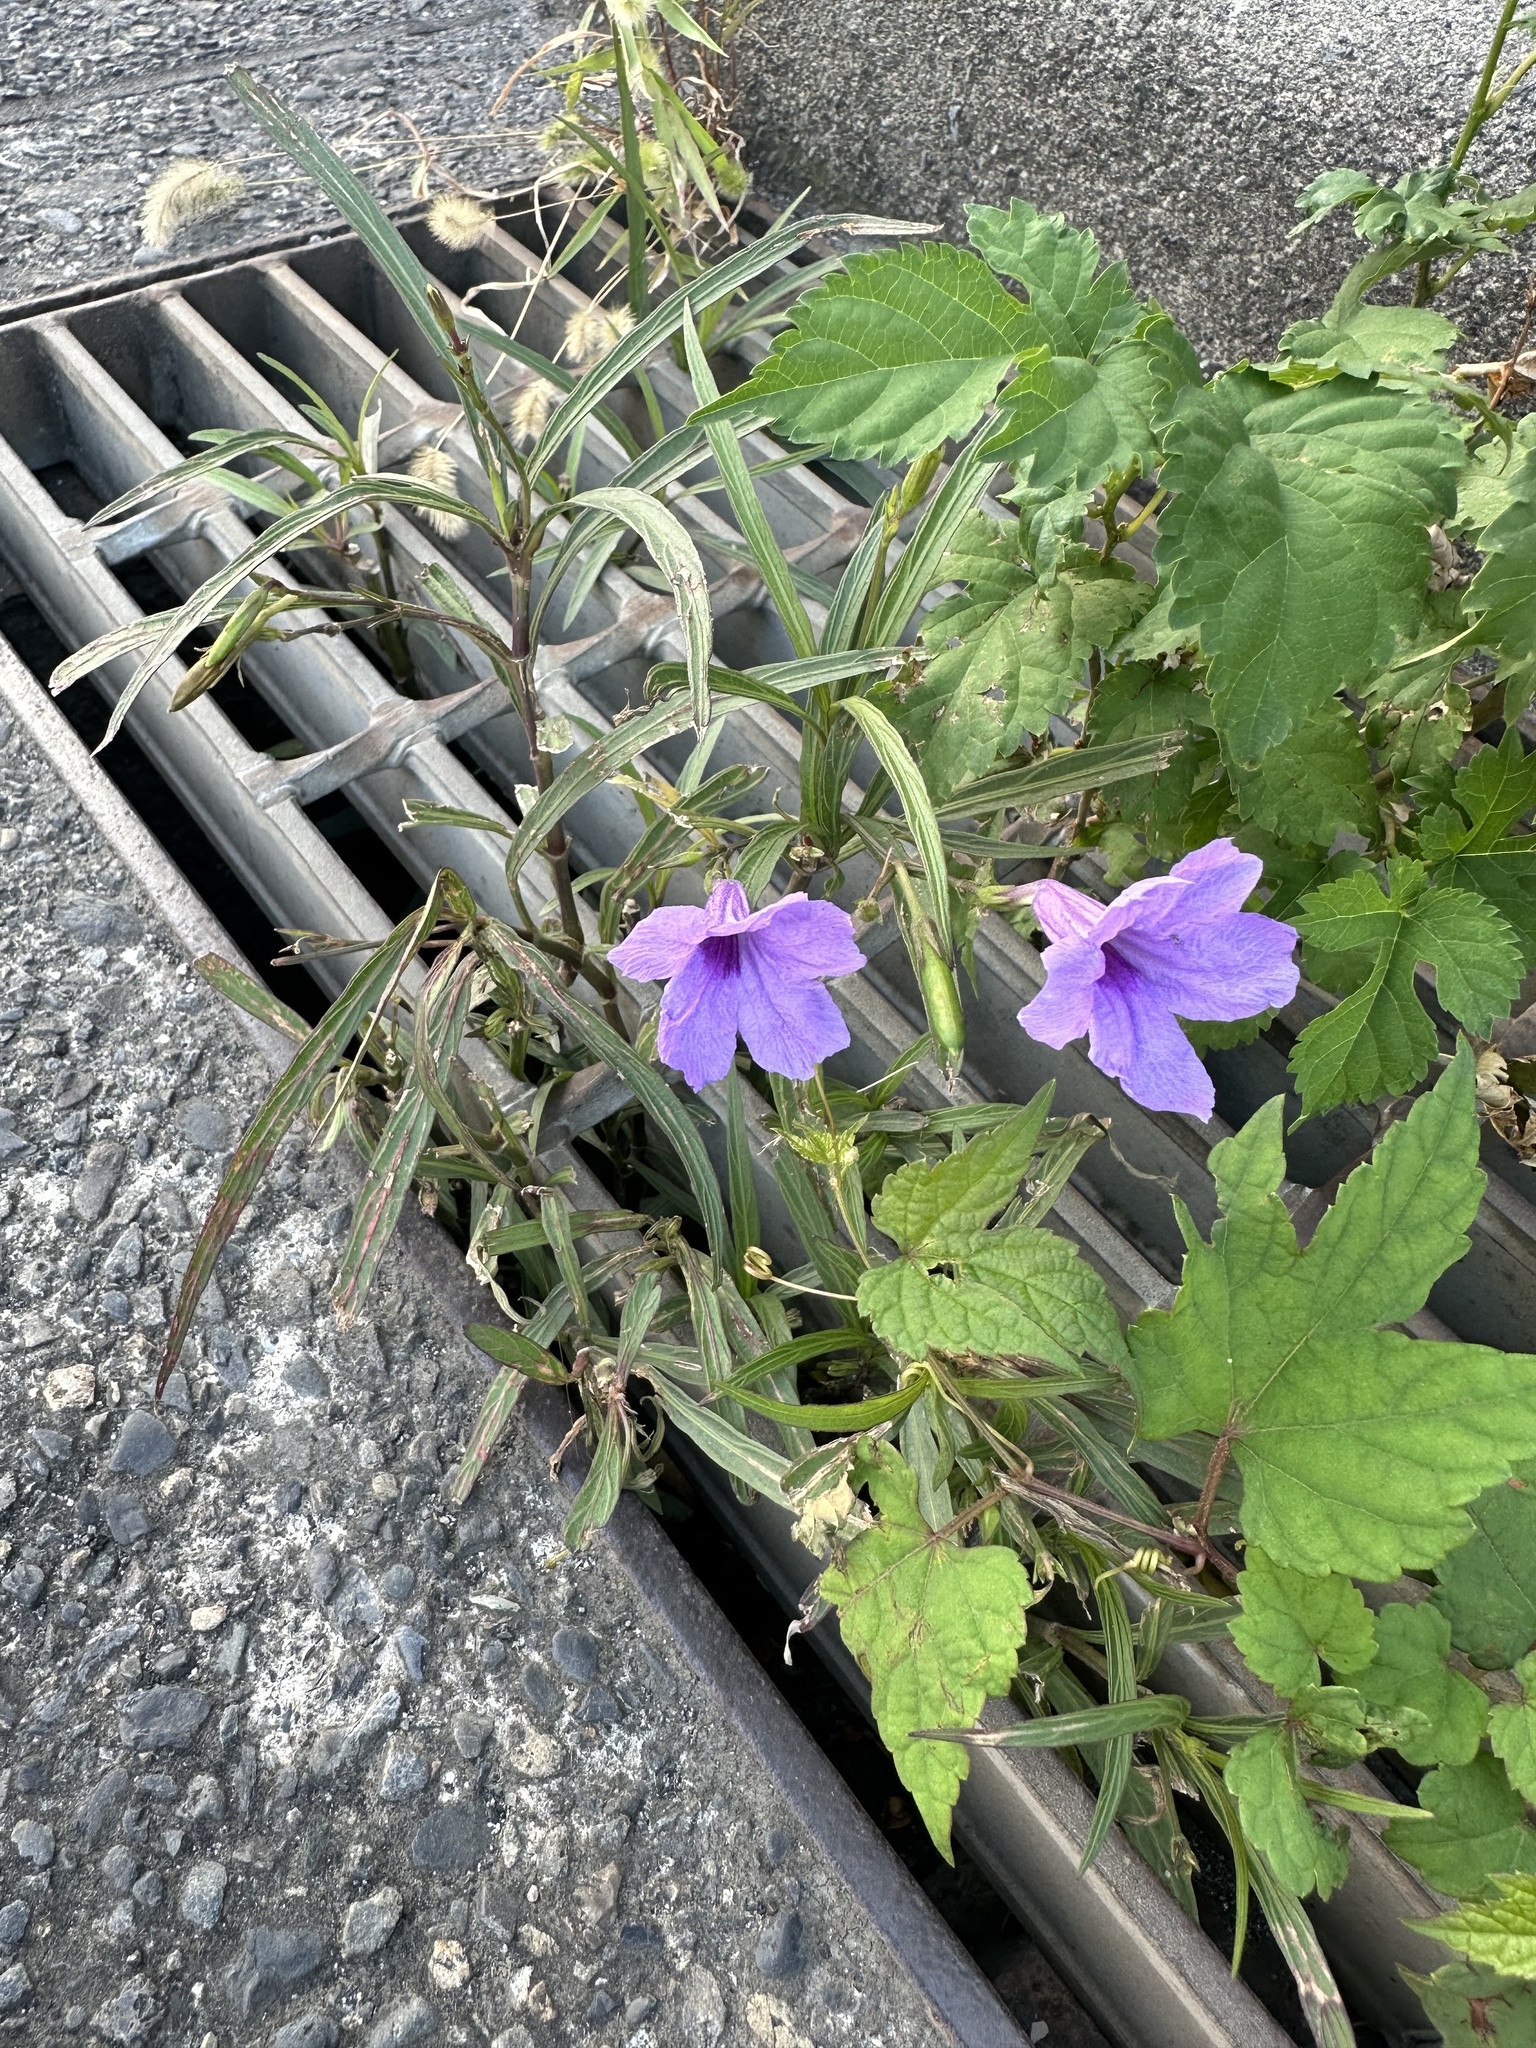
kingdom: Plantae
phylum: Tracheophyta
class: Magnoliopsida
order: Lamiales
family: Acanthaceae
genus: Ruellia
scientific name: Ruellia simplex
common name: Softseed wild petunia
